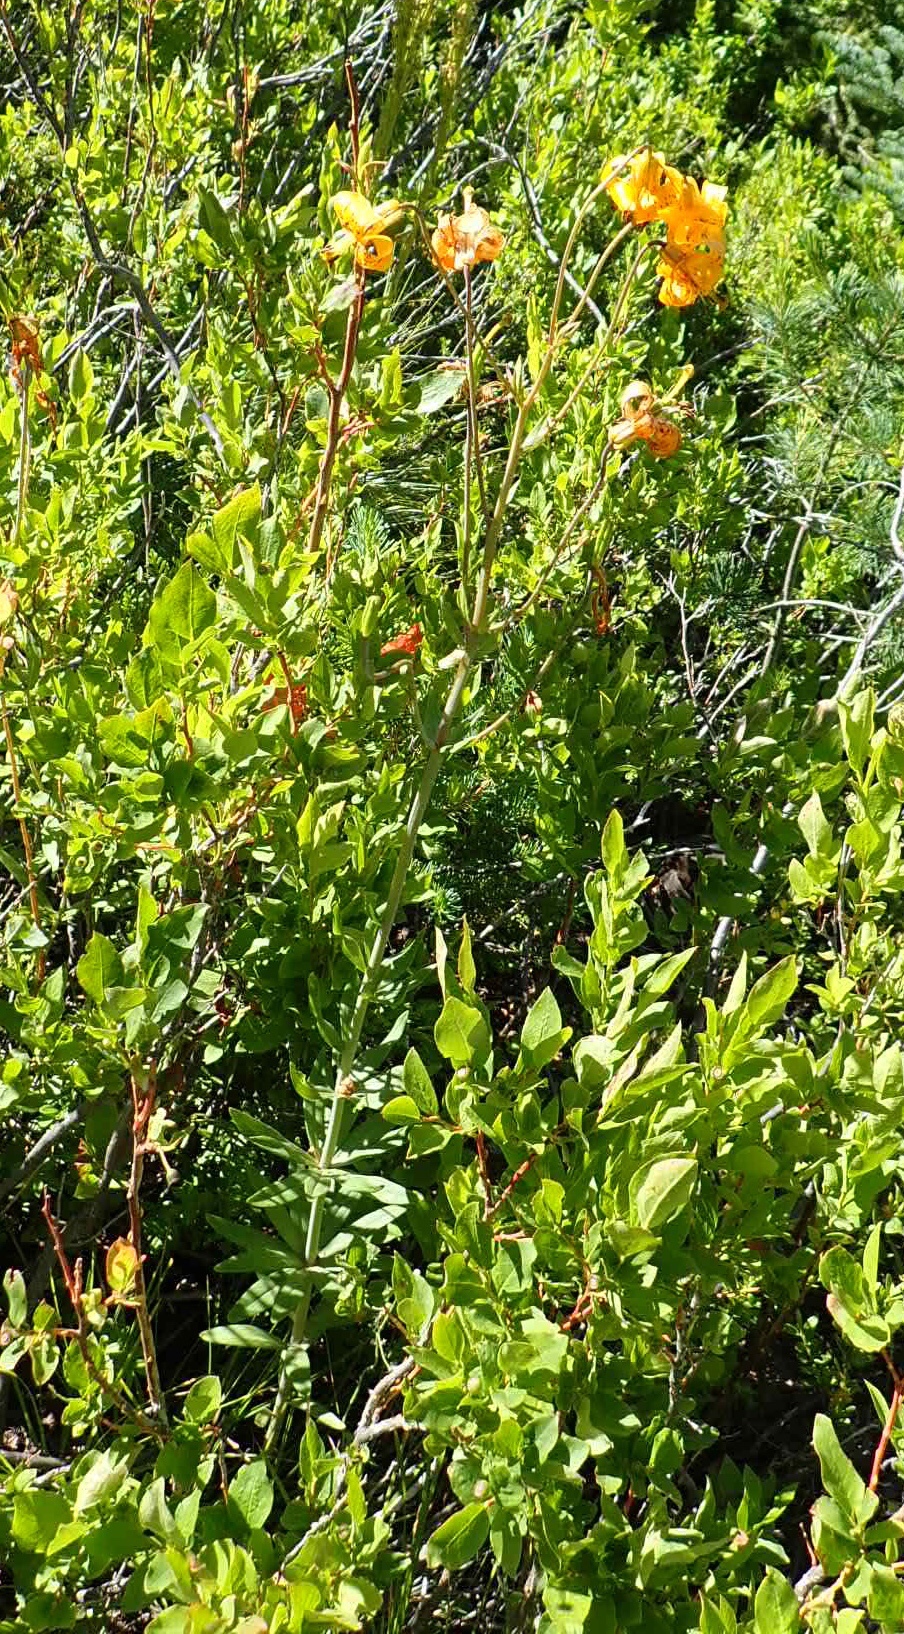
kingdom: Plantae
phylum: Tracheophyta
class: Liliopsida
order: Liliales
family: Liliaceae
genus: Lilium
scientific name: Lilium columbianum
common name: Columbia lily
